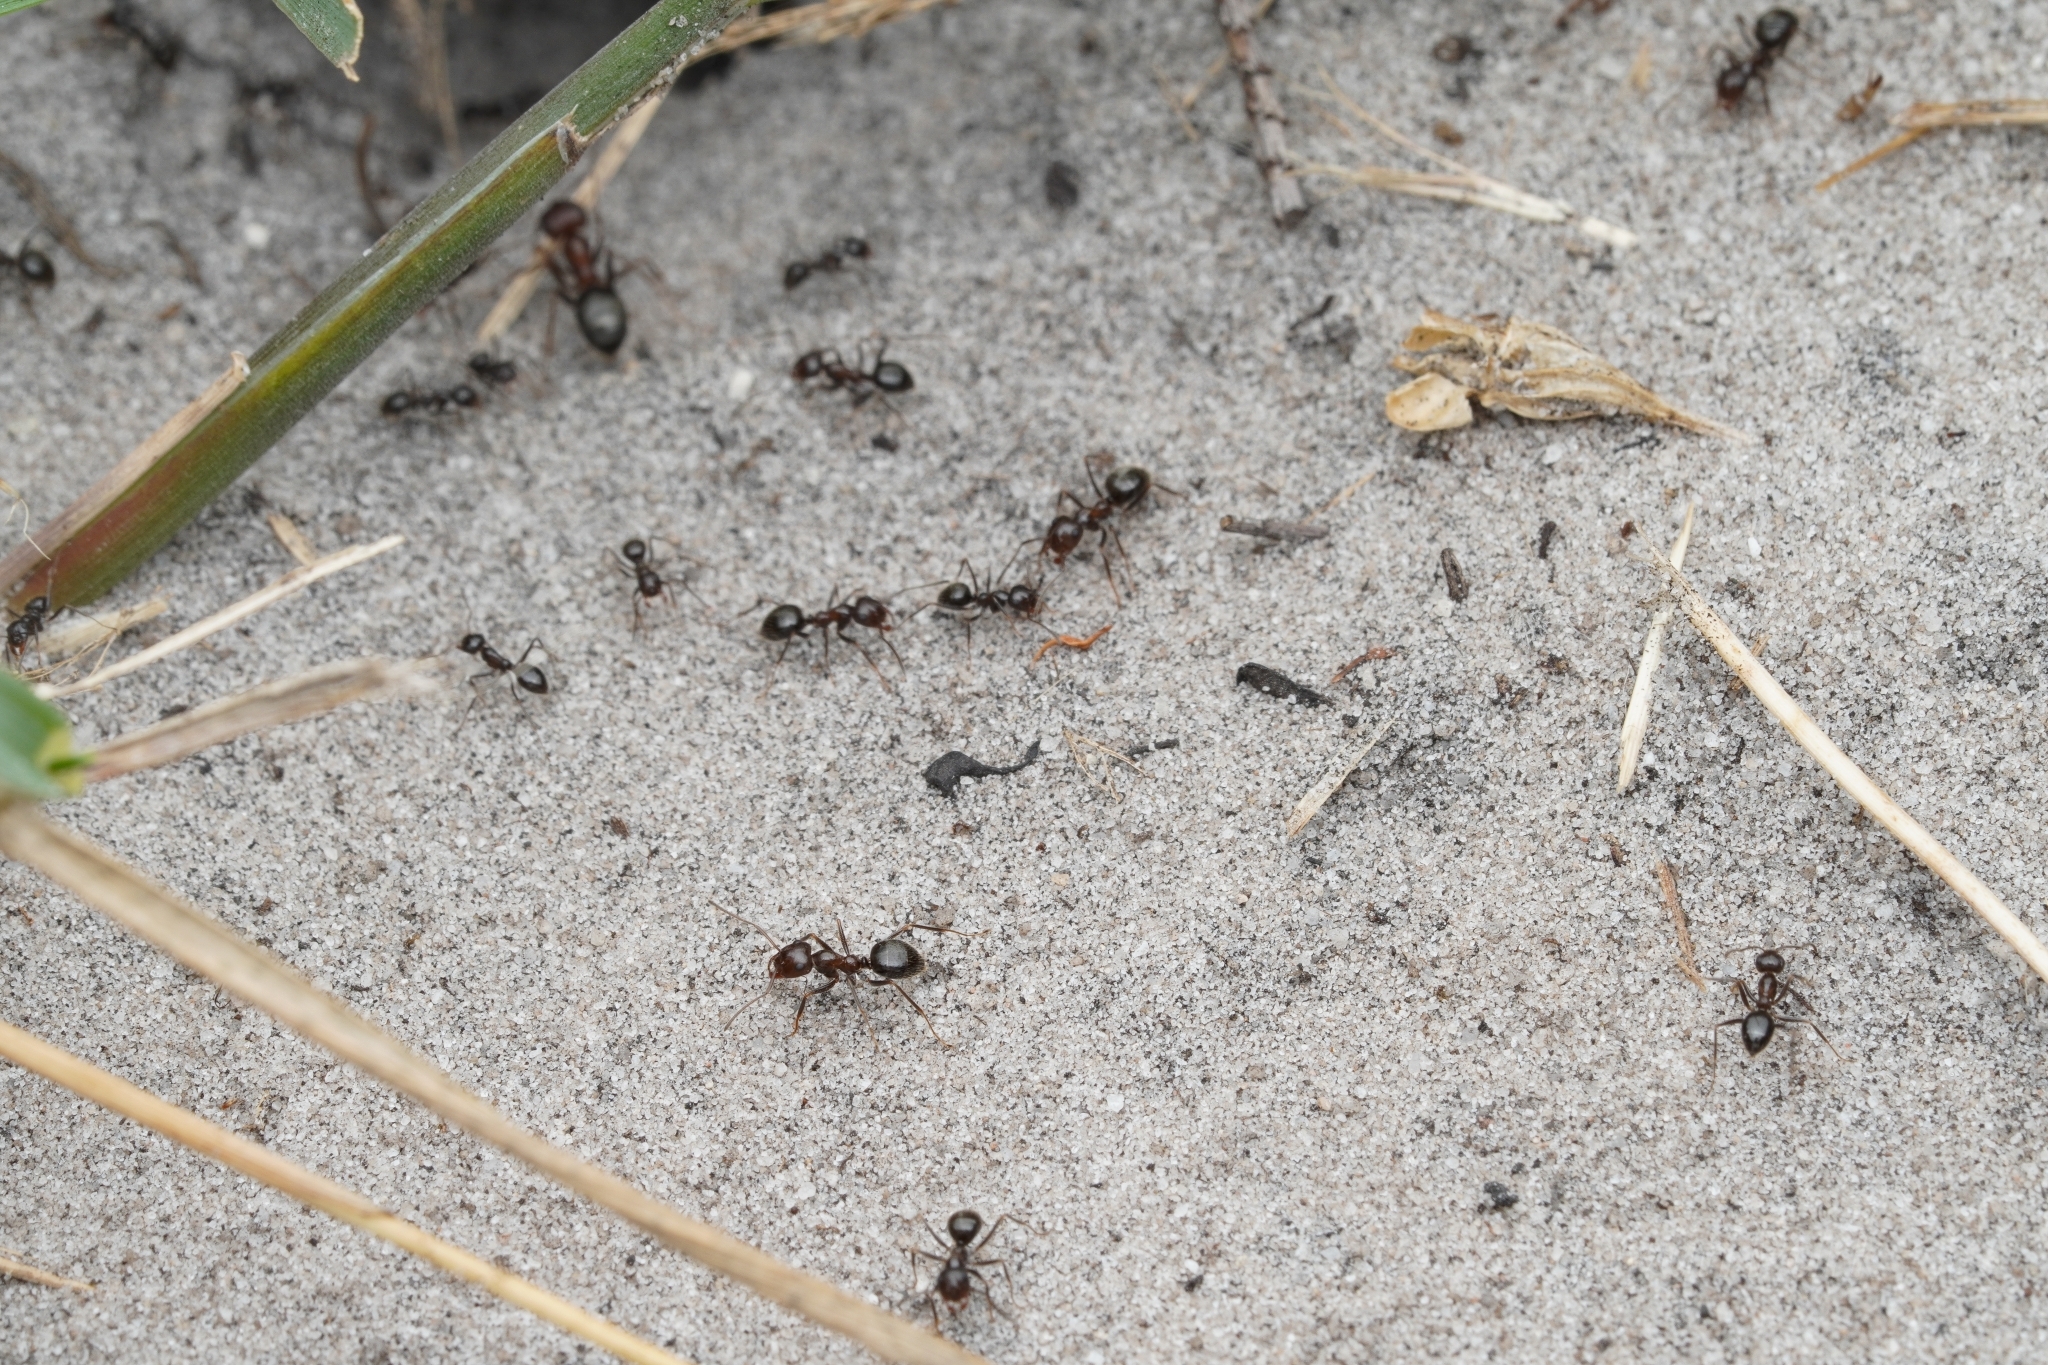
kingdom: Animalia
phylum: Arthropoda
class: Insecta
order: Hymenoptera
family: Formicidae
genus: Anoplolepis
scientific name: Anoplolepis steingroeveri
